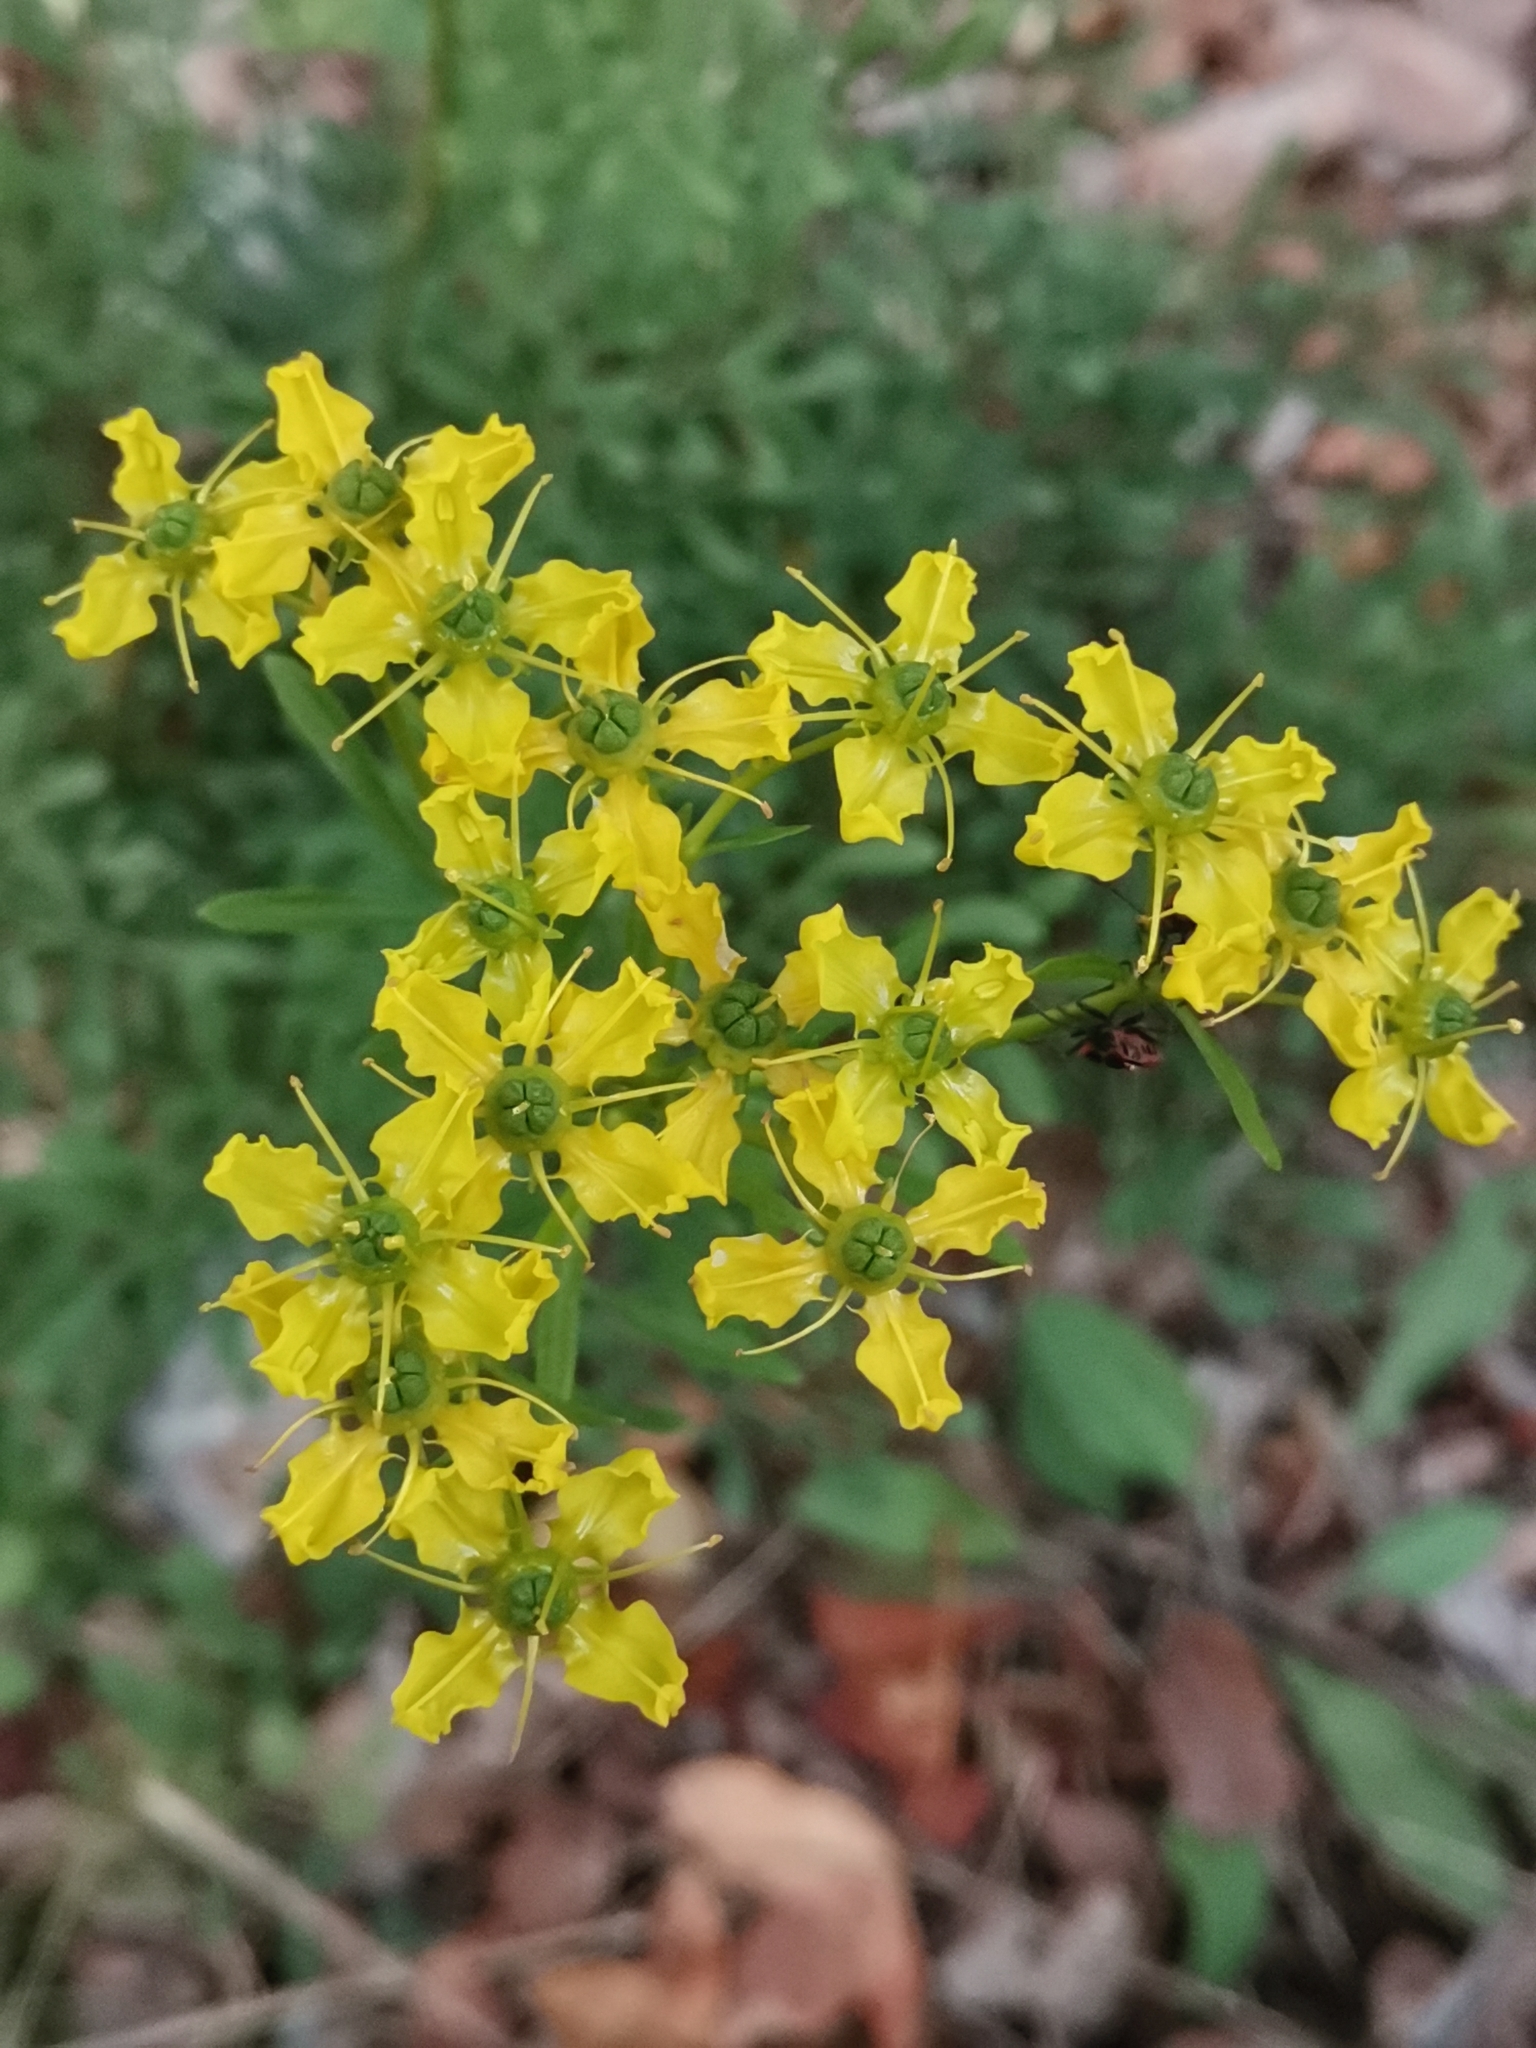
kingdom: Plantae
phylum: Tracheophyta
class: Magnoliopsida
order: Sapindales
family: Rutaceae
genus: Ruta
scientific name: Ruta
